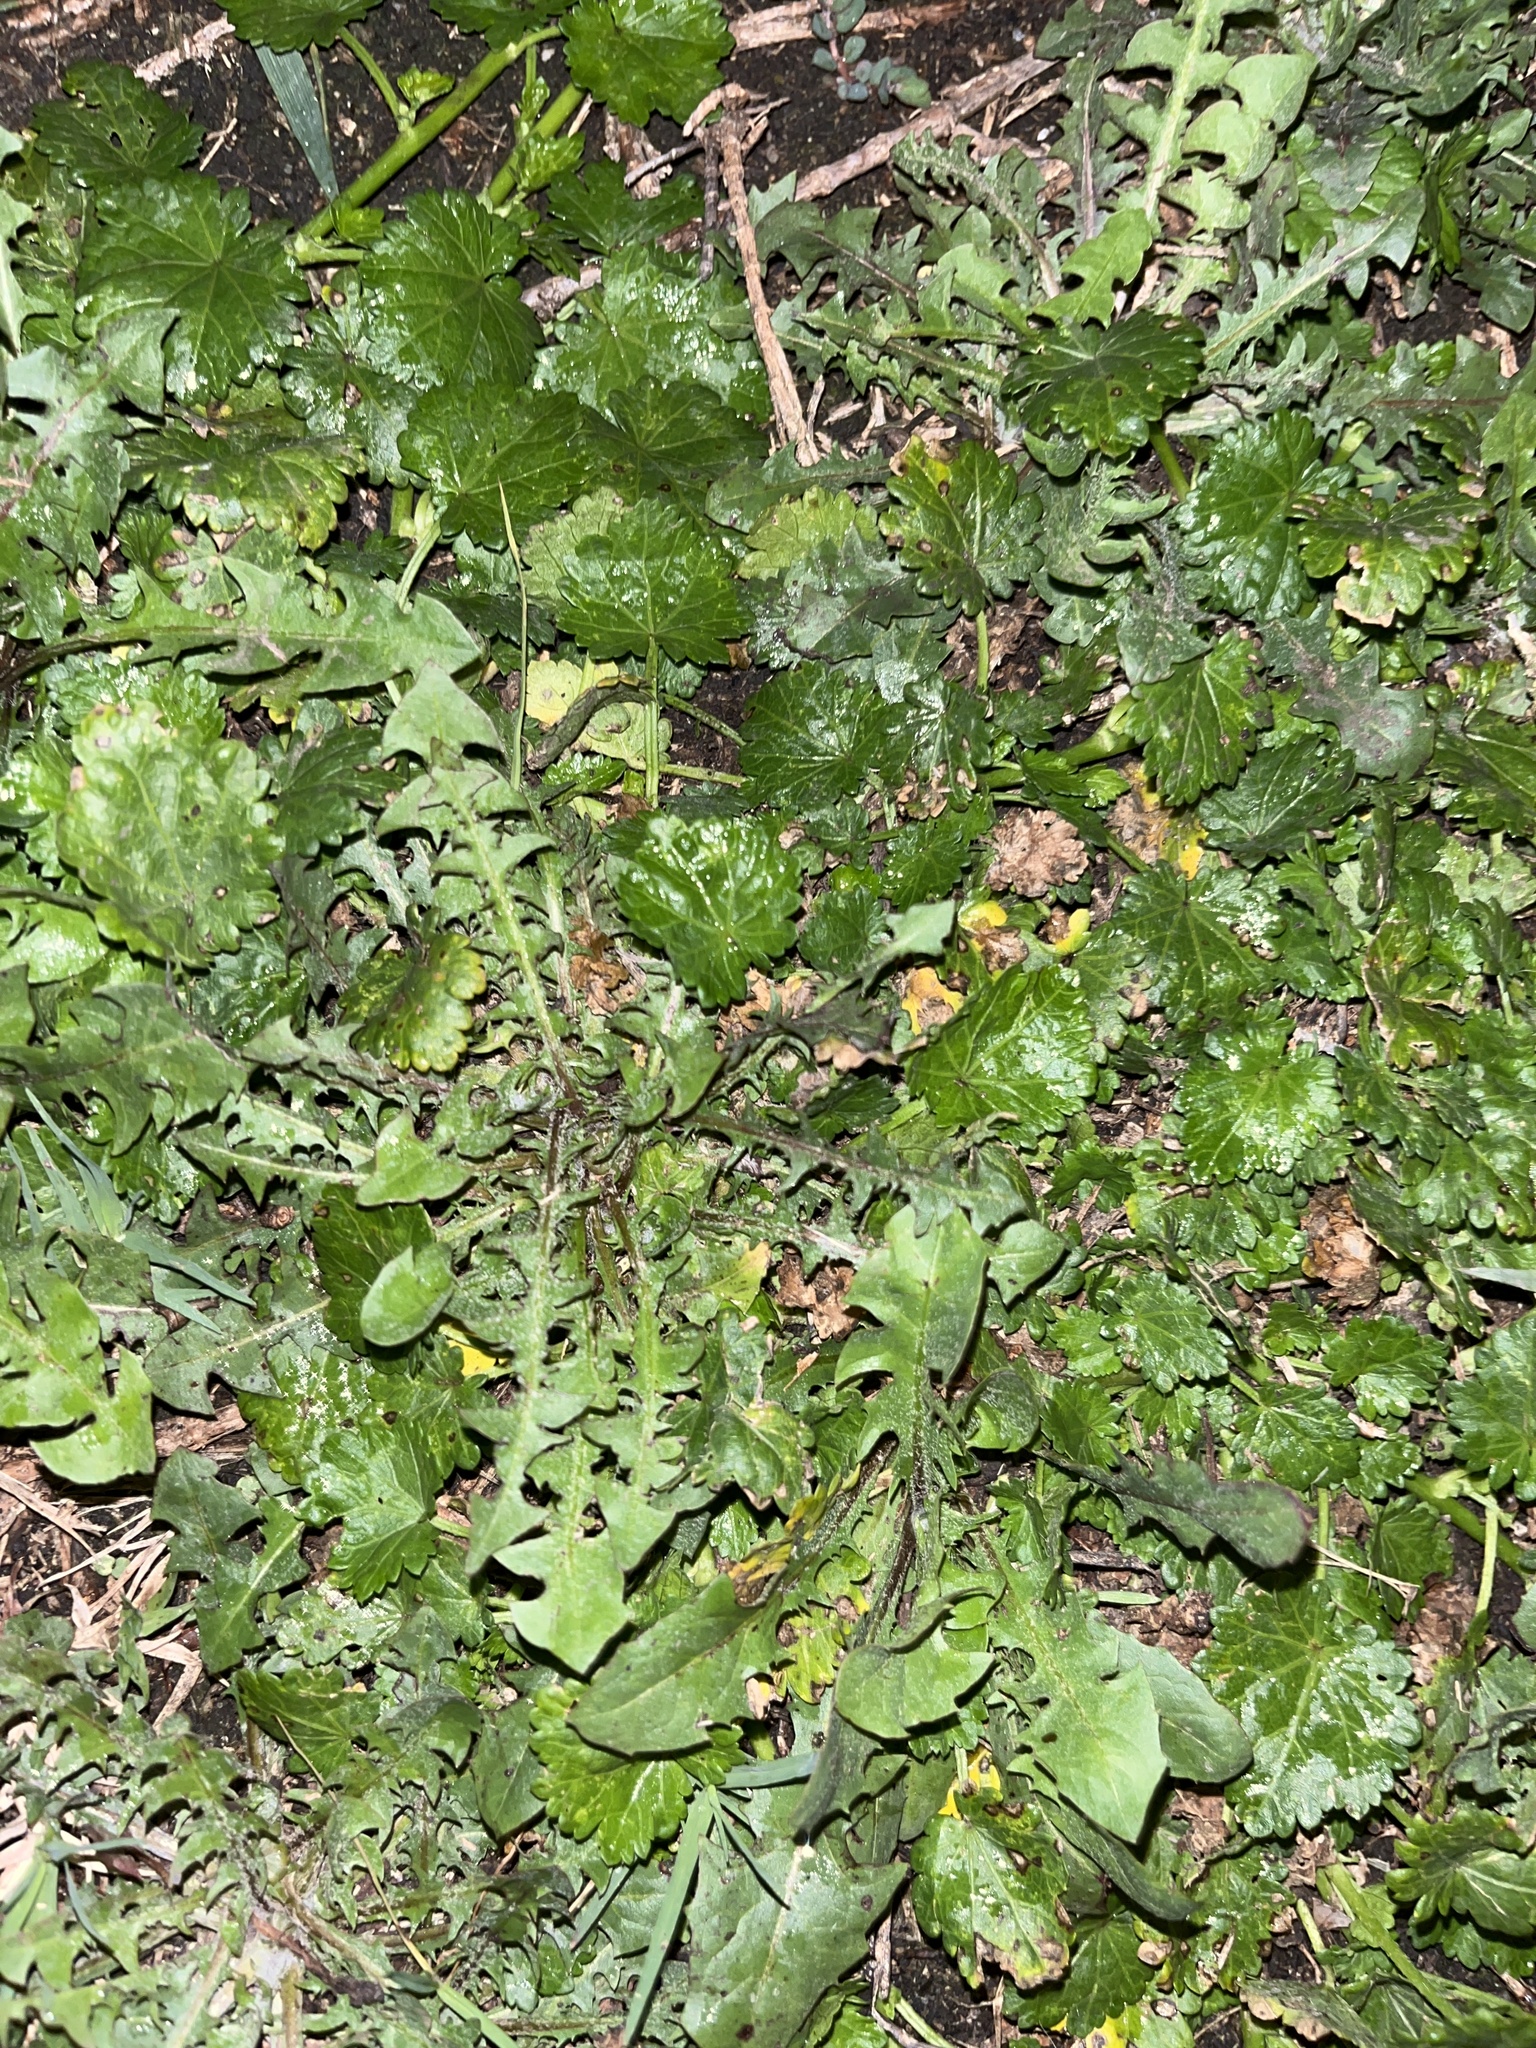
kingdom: Plantae
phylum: Tracheophyta
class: Magnoliopsida
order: Malvales
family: Malvaceae
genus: Modiola
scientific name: Modiola caroliniana
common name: Carolina bristlemallow
